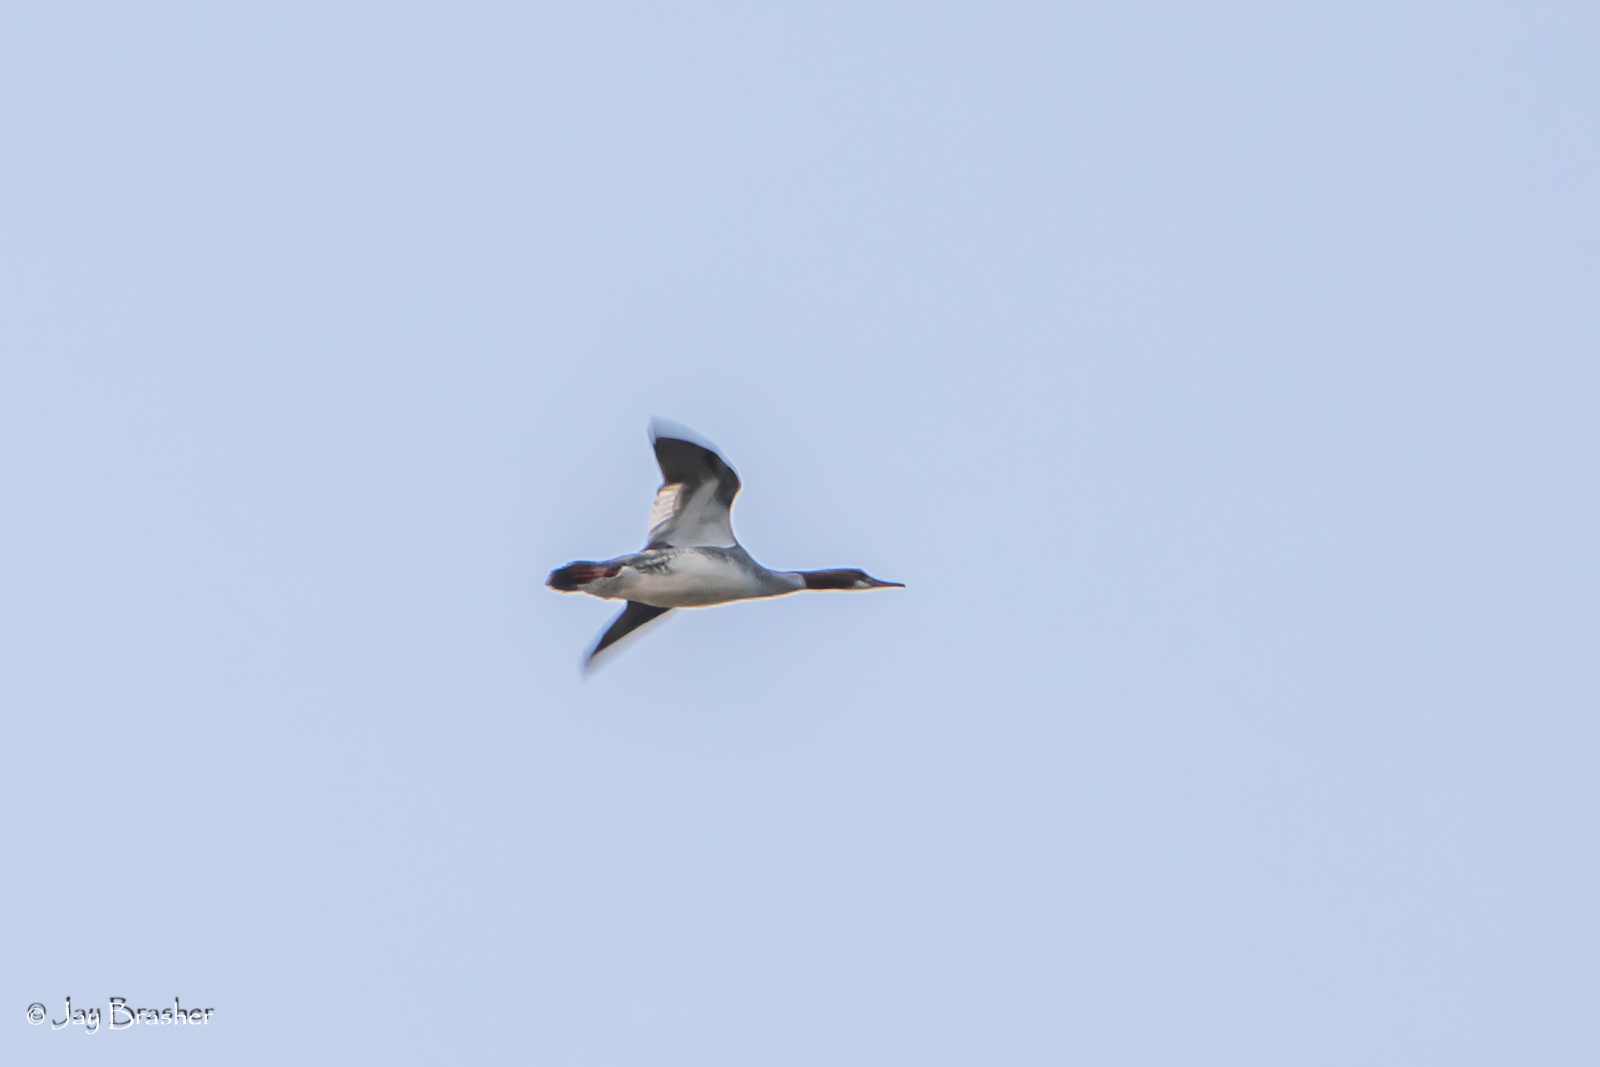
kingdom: Animalia
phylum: Chordata
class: Aves
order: Anseriformes
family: Anatidae
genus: Mergus
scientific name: Mergus merganser
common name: Common merganser
